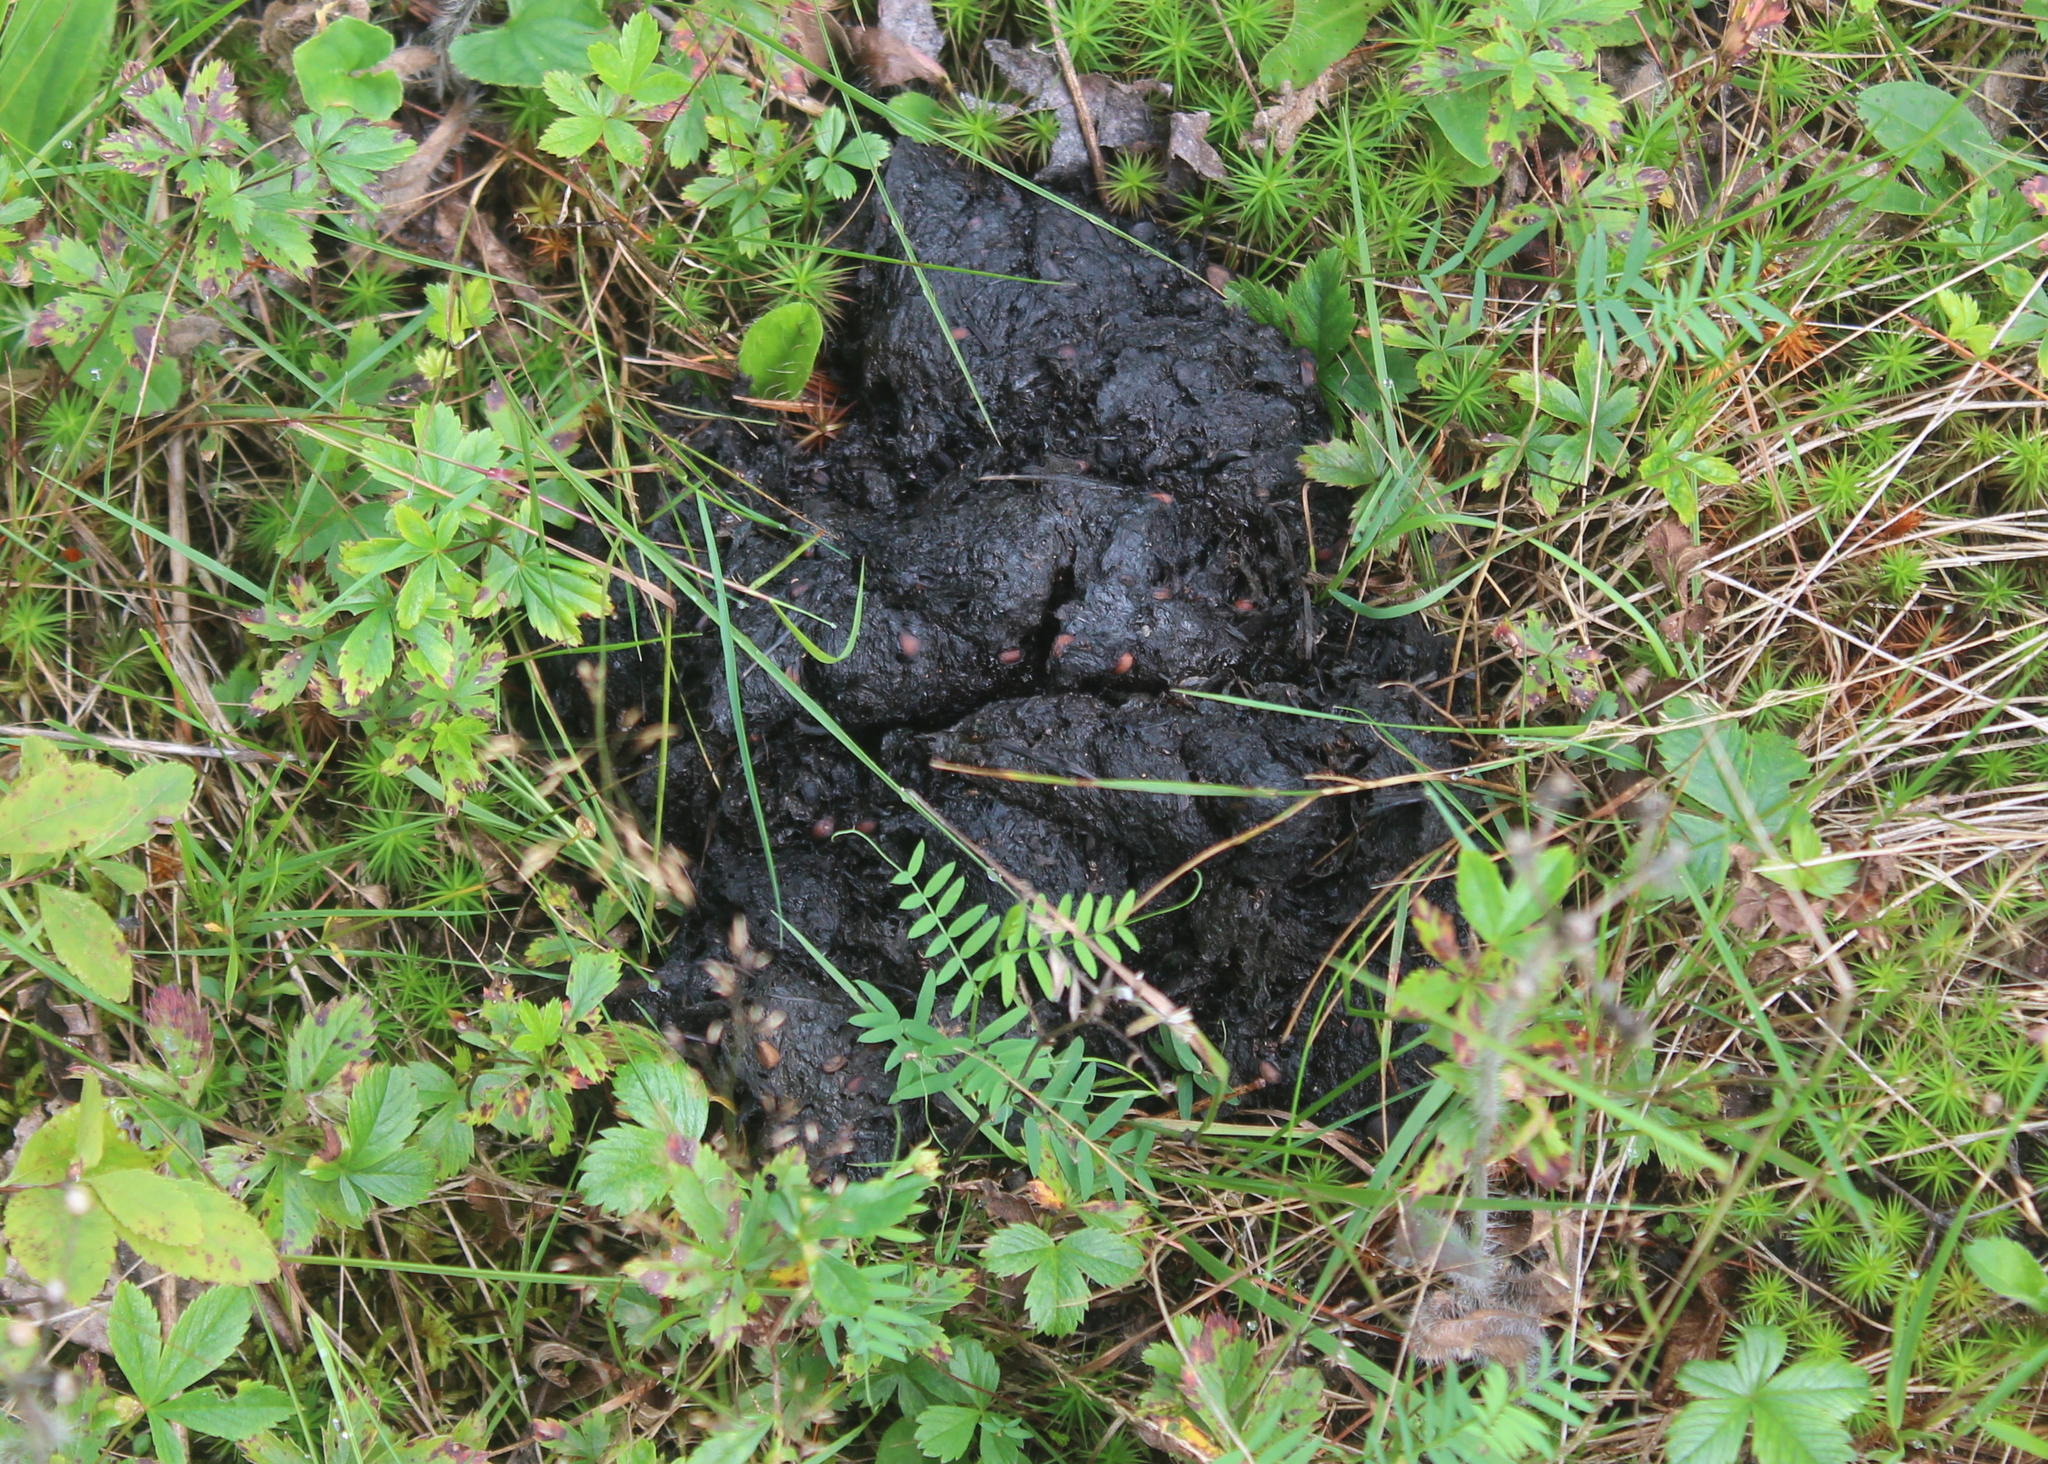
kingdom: Animalia
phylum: Chordata
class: Mammalia
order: Carnivora
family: Ursidae
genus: Ursus
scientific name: Ursus americanus
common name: American black bear
